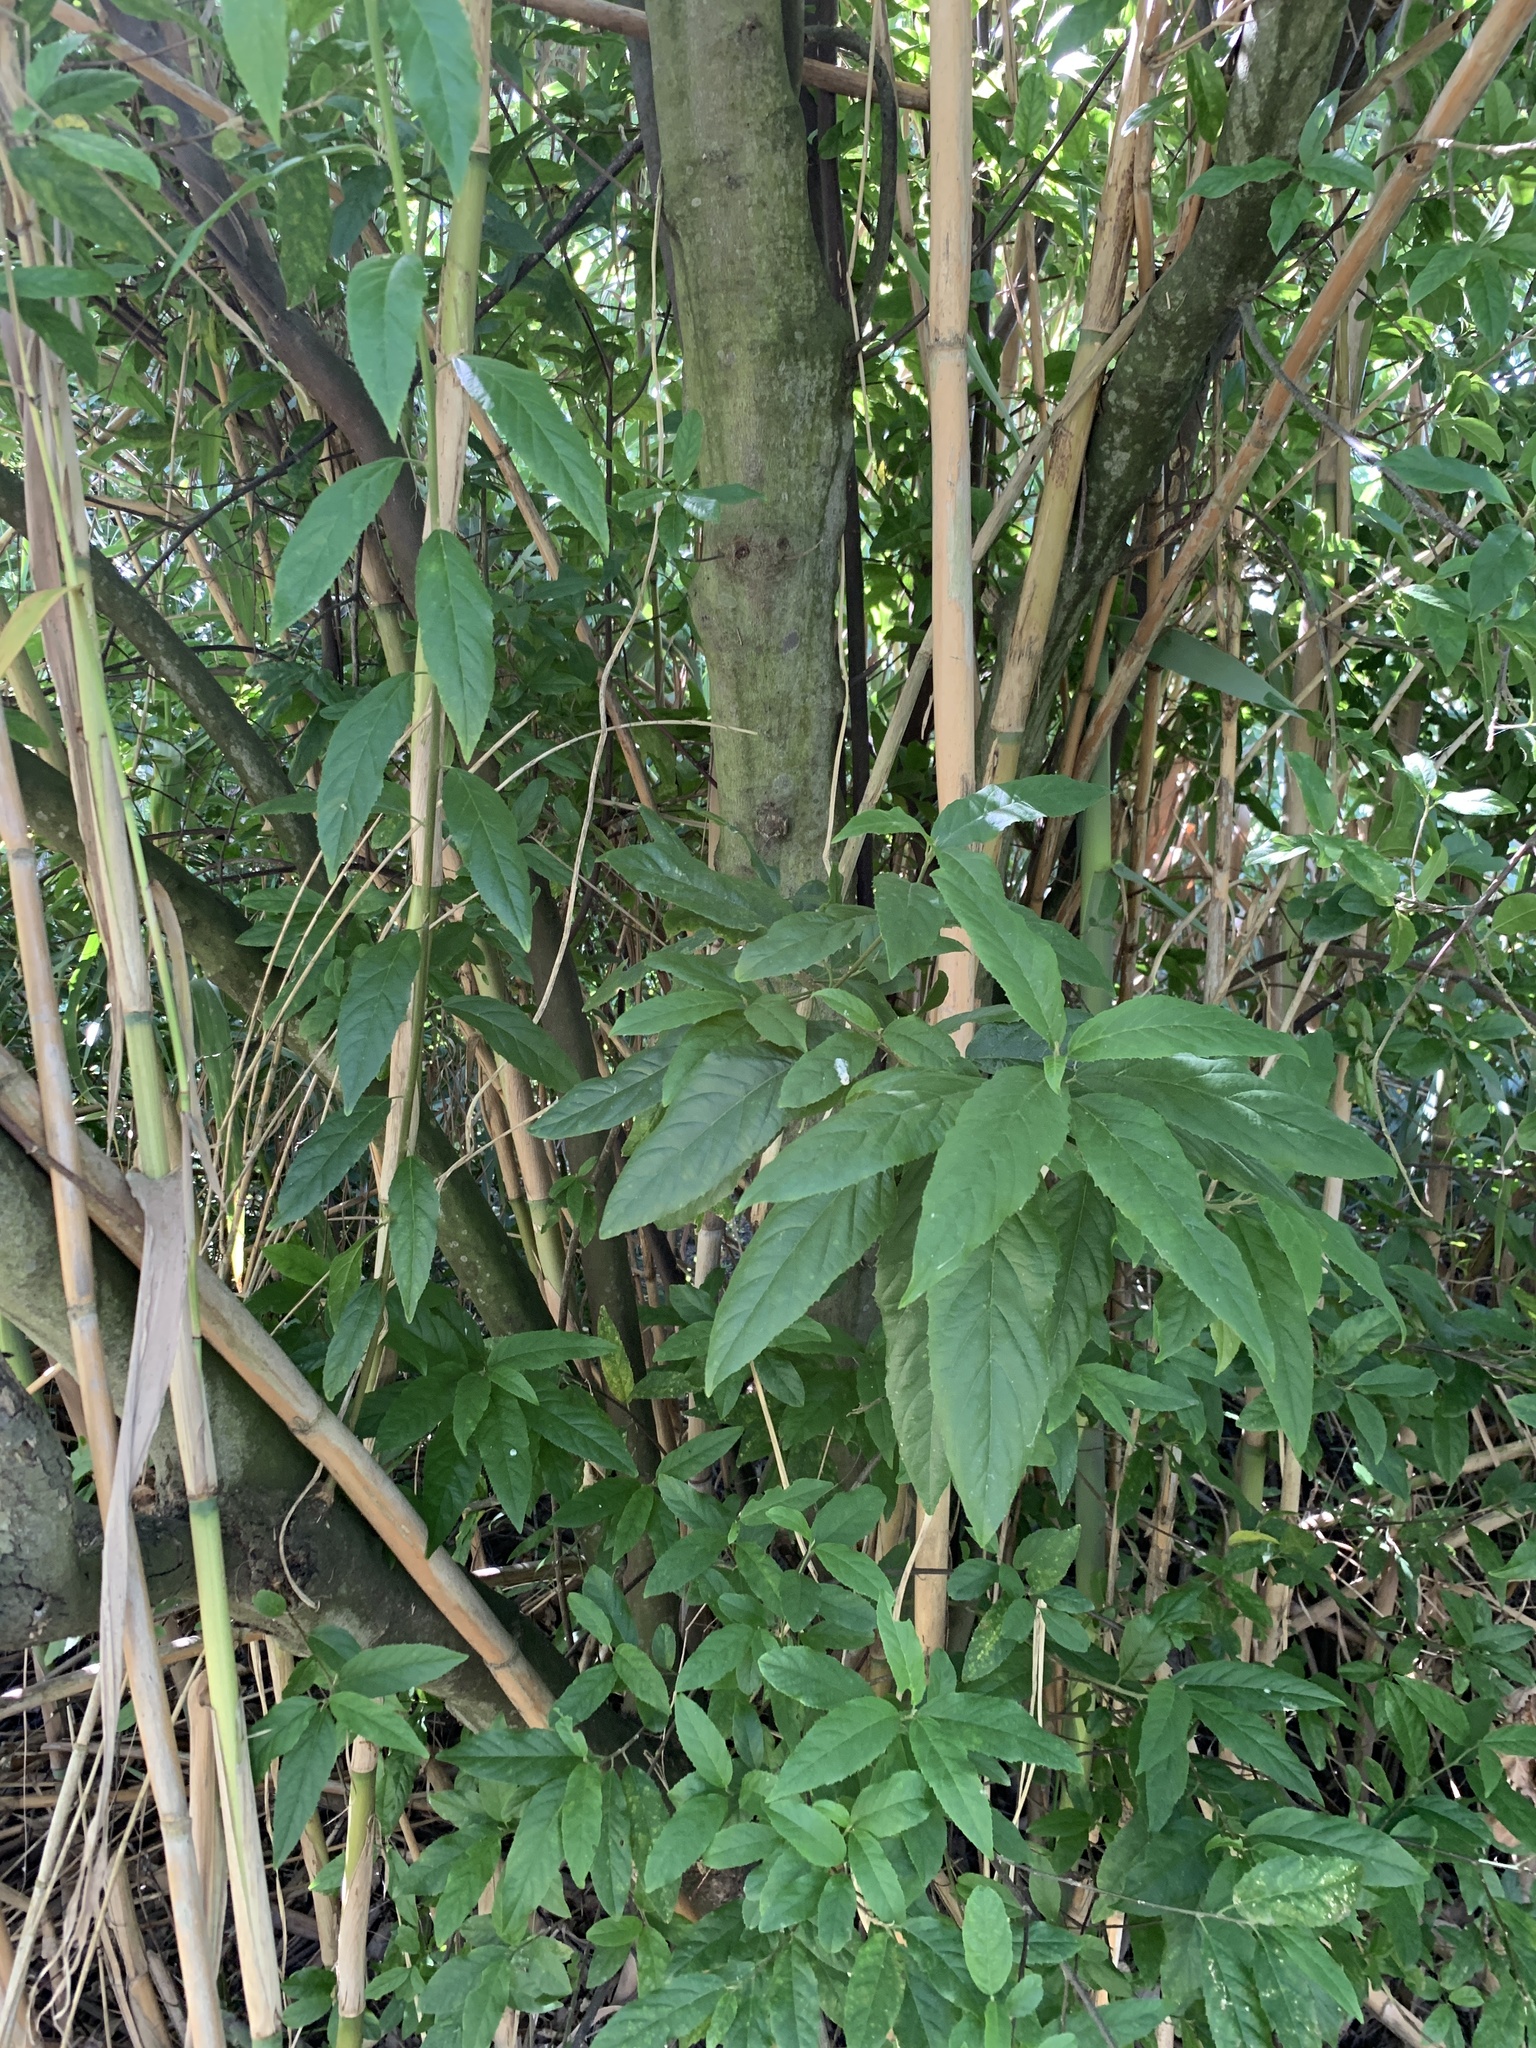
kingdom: Plantae
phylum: Tracheophyta
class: Magnoliopsida
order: Malpighiales
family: Achariaceae
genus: Kiggelaria
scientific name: Kiggelaria africana
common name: Wild peach
